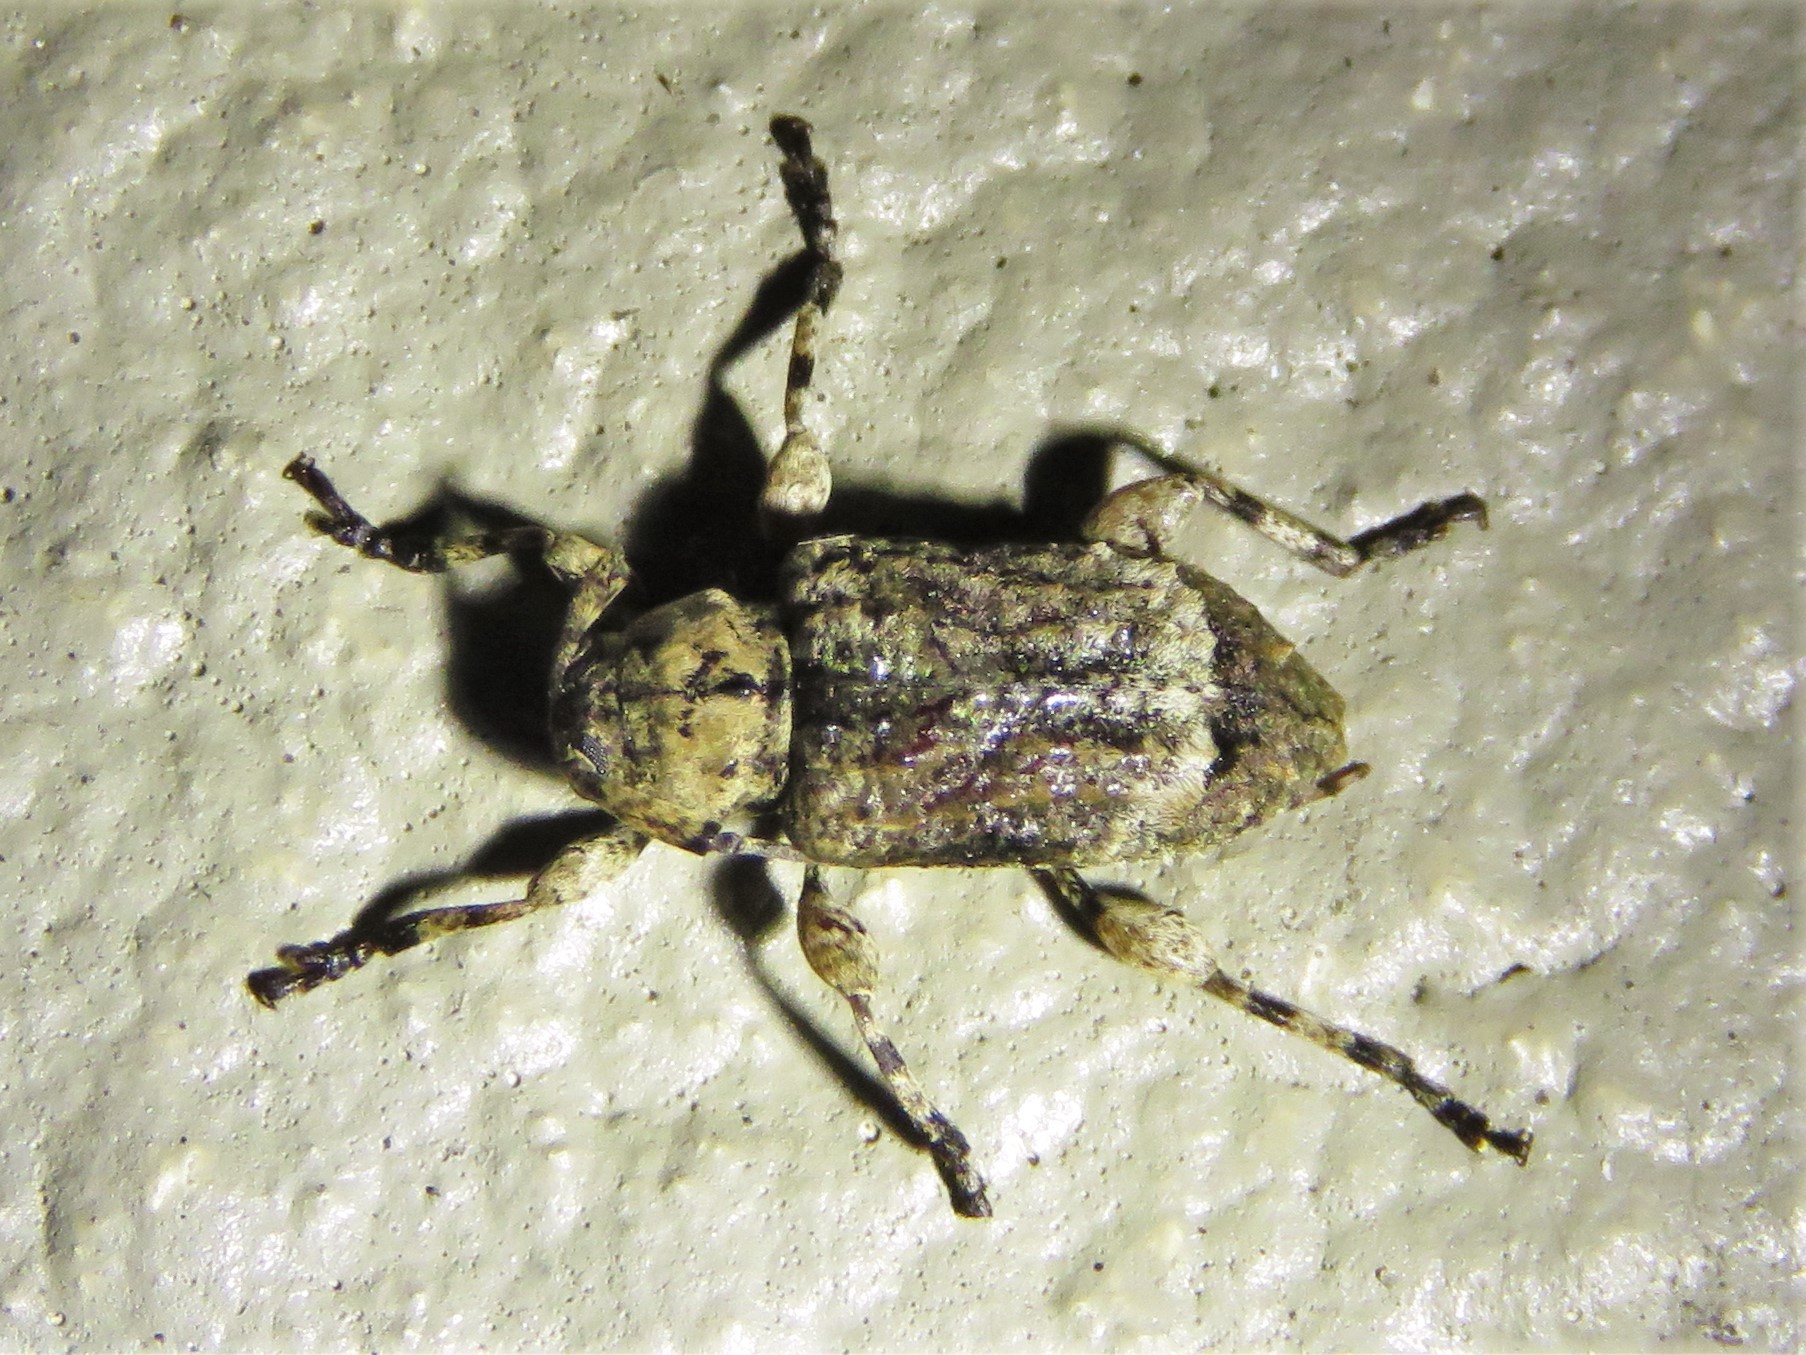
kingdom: Animalia
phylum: Arthropoda
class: Insecta
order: Coleoptera
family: Cerambycidae
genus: Leptostylus
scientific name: Leptostylus transversus
